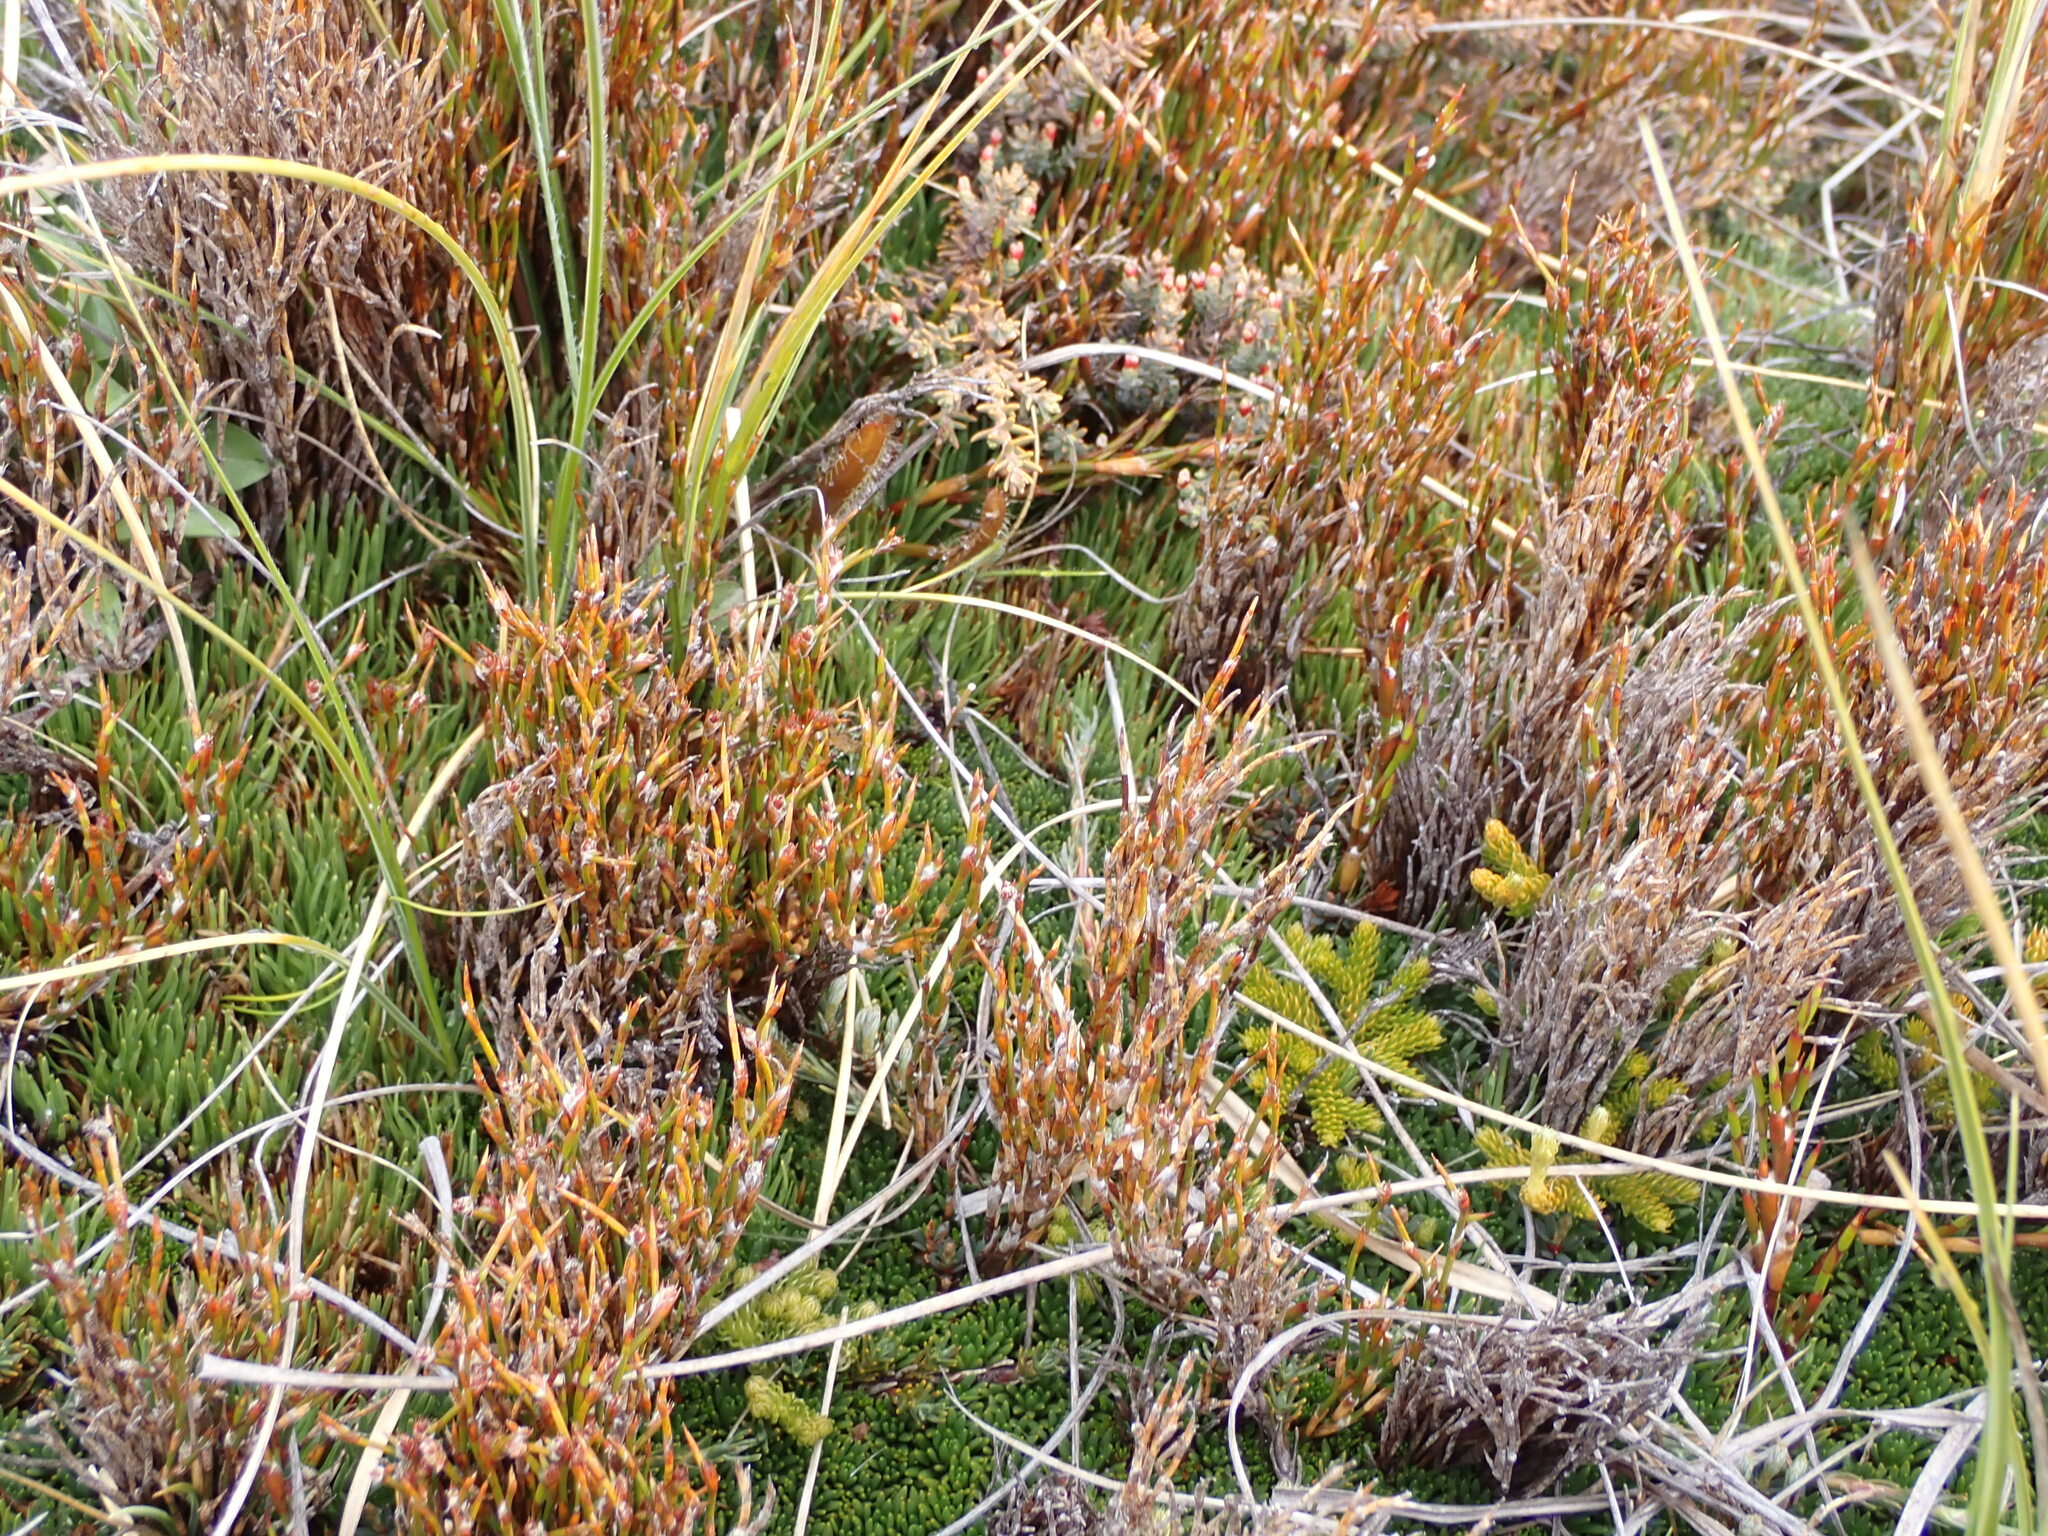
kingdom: Plantae
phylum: Tracheophyta
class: Liliopsida
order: Poales
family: Restionaceae
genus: Empodisma
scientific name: Empodisma minus
